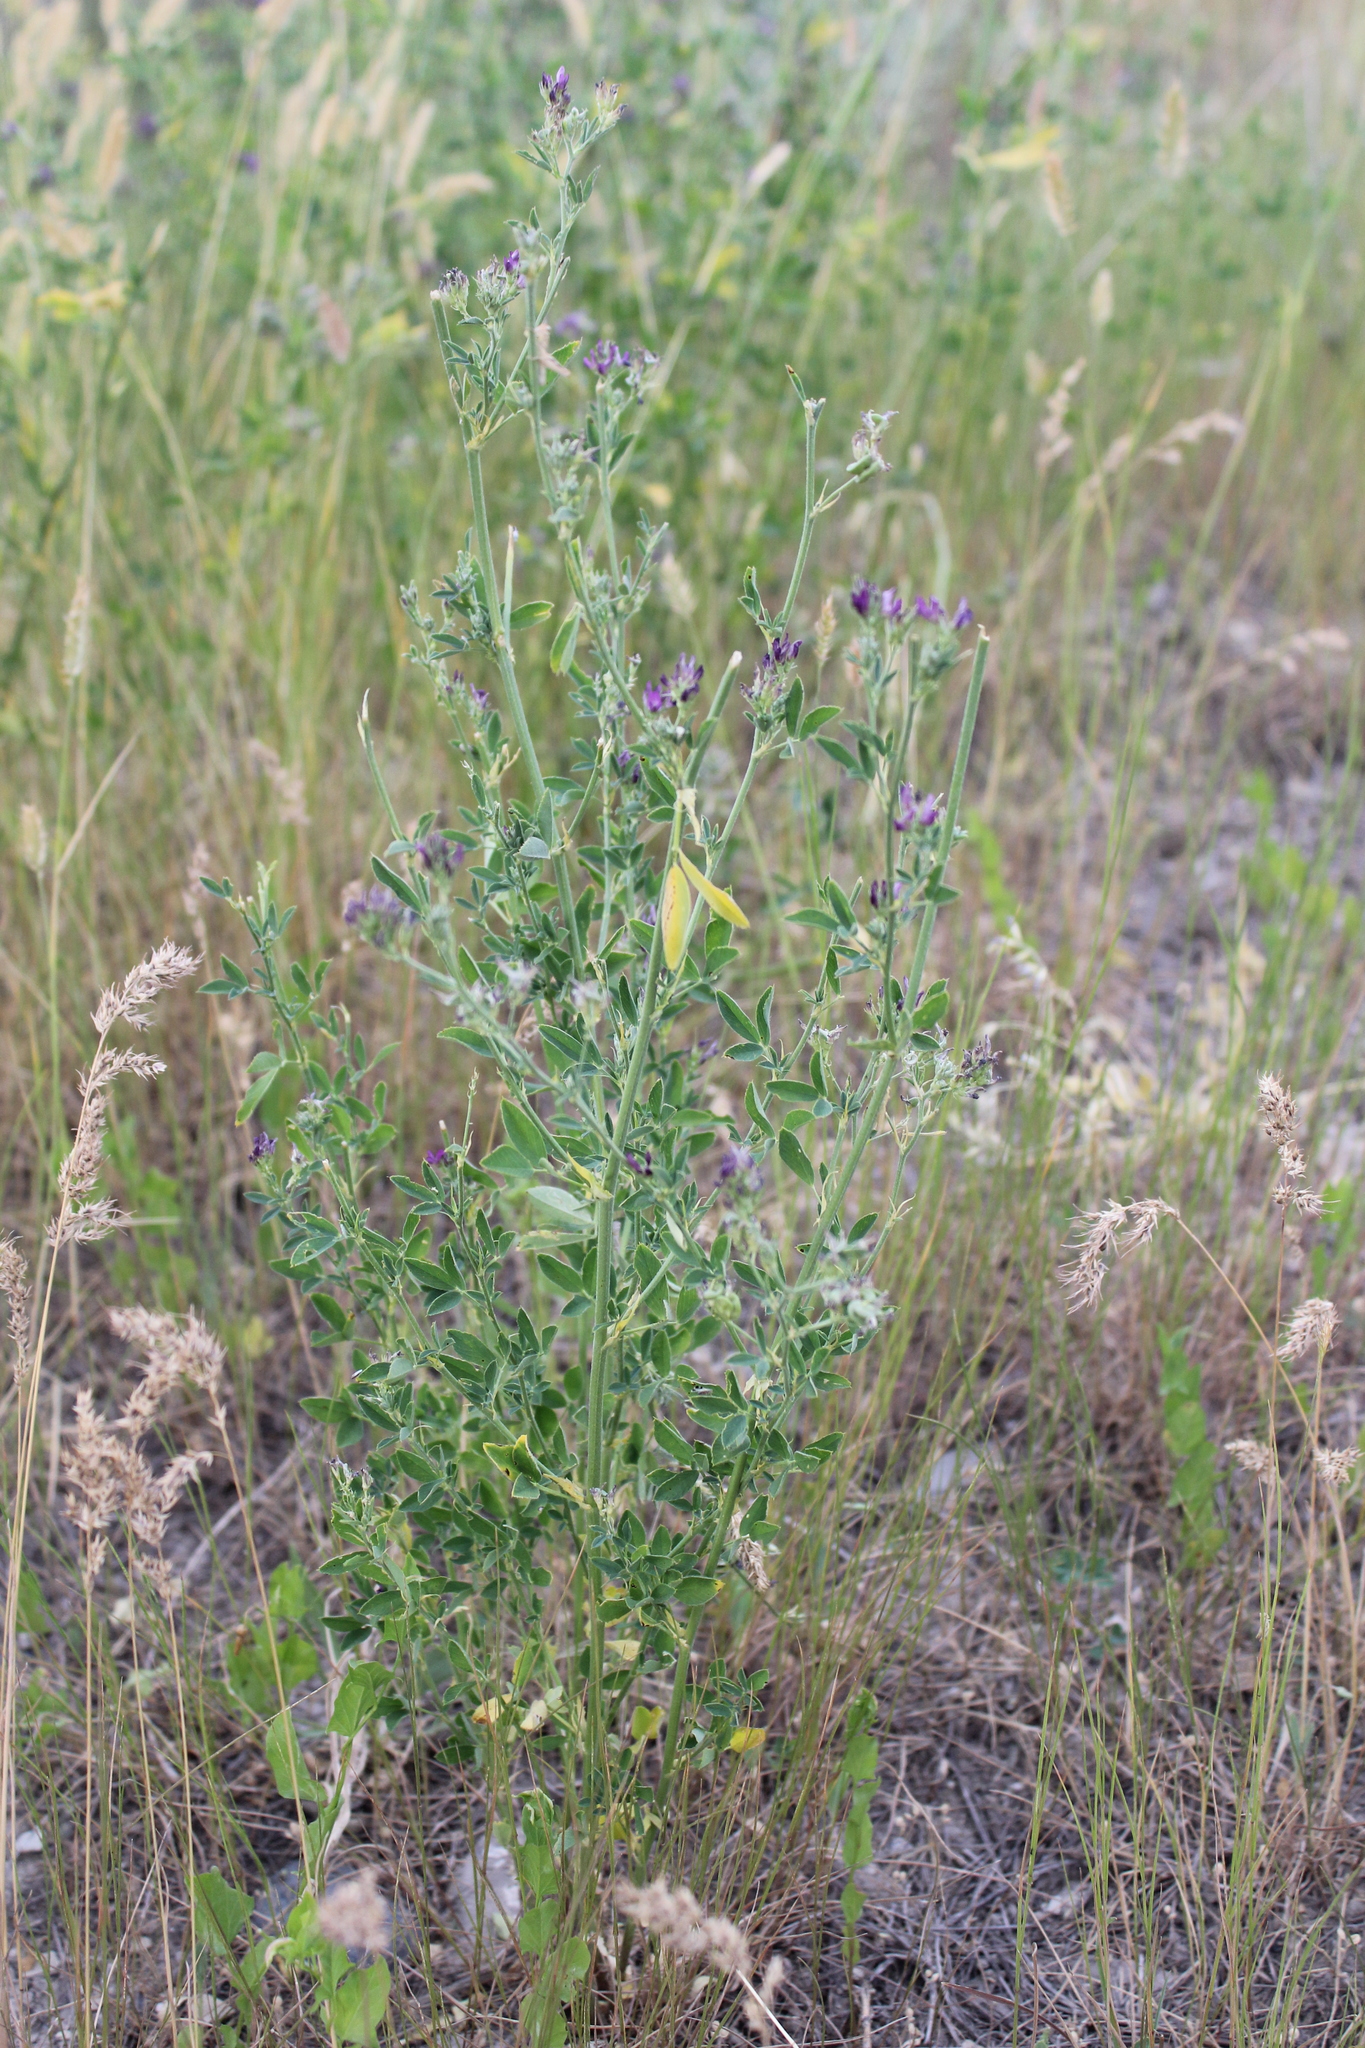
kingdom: Plantae
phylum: Tracheophyta
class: Magnoliopsida
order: Fabales
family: Fabaceae
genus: Medicago
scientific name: Medicago sativa
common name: Alfalfa
